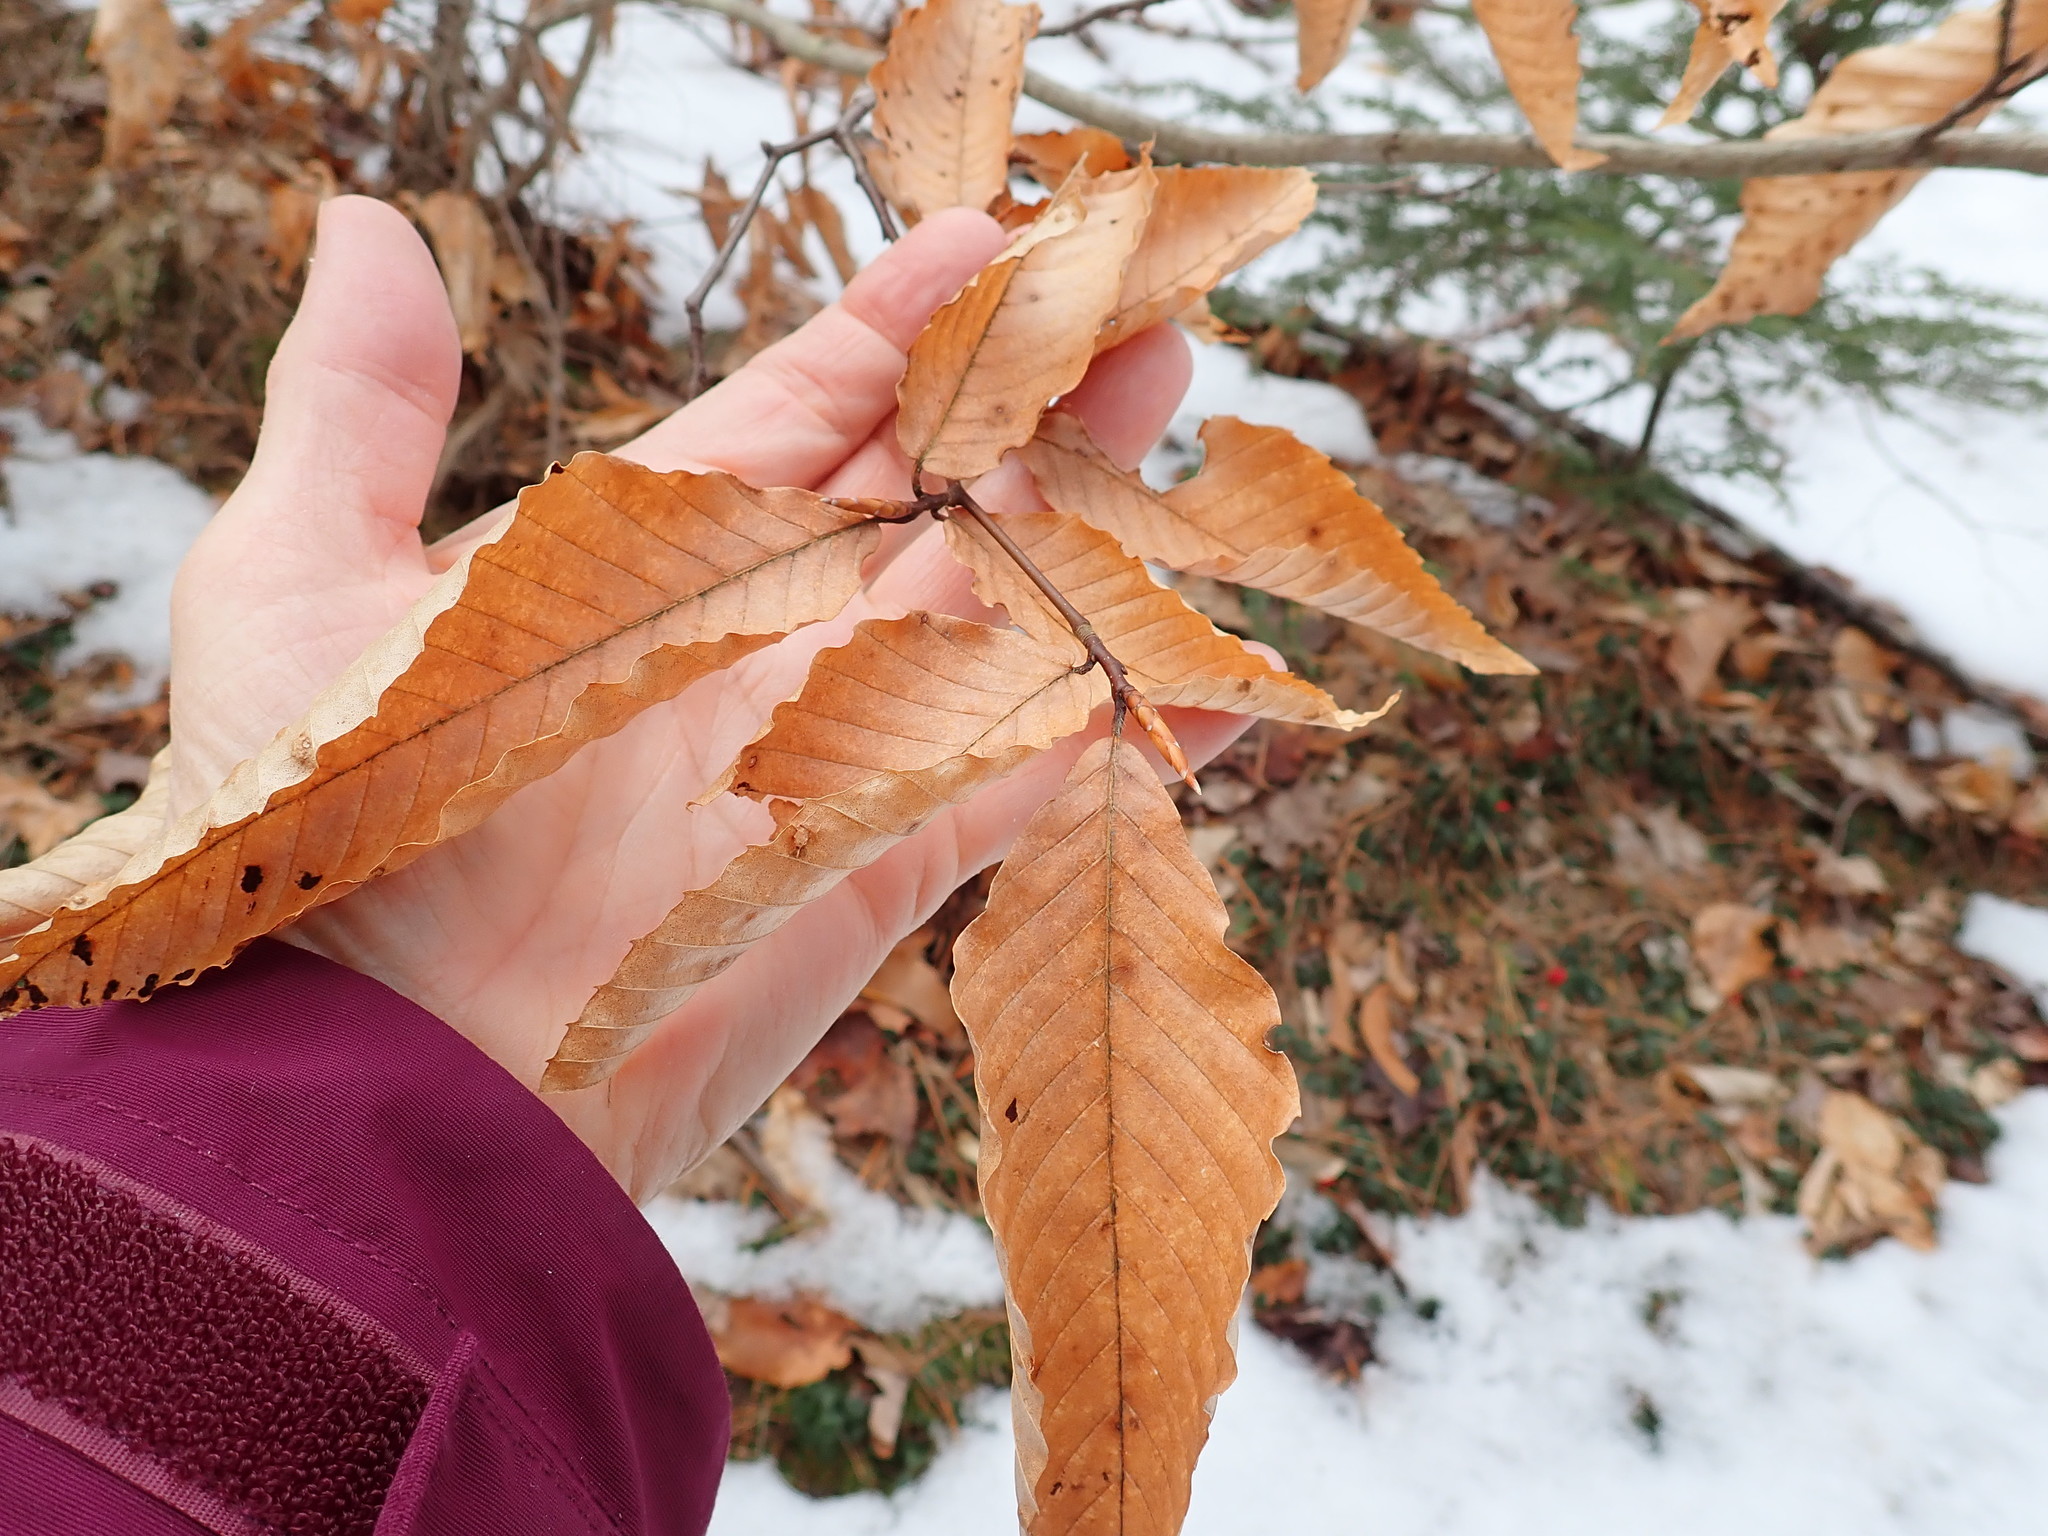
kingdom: Plantae
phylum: Tracheophyta
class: Magnoliopsida
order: Fagales
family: Fagaceae
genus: Fagus
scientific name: Fagus grandifolia
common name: American beech
